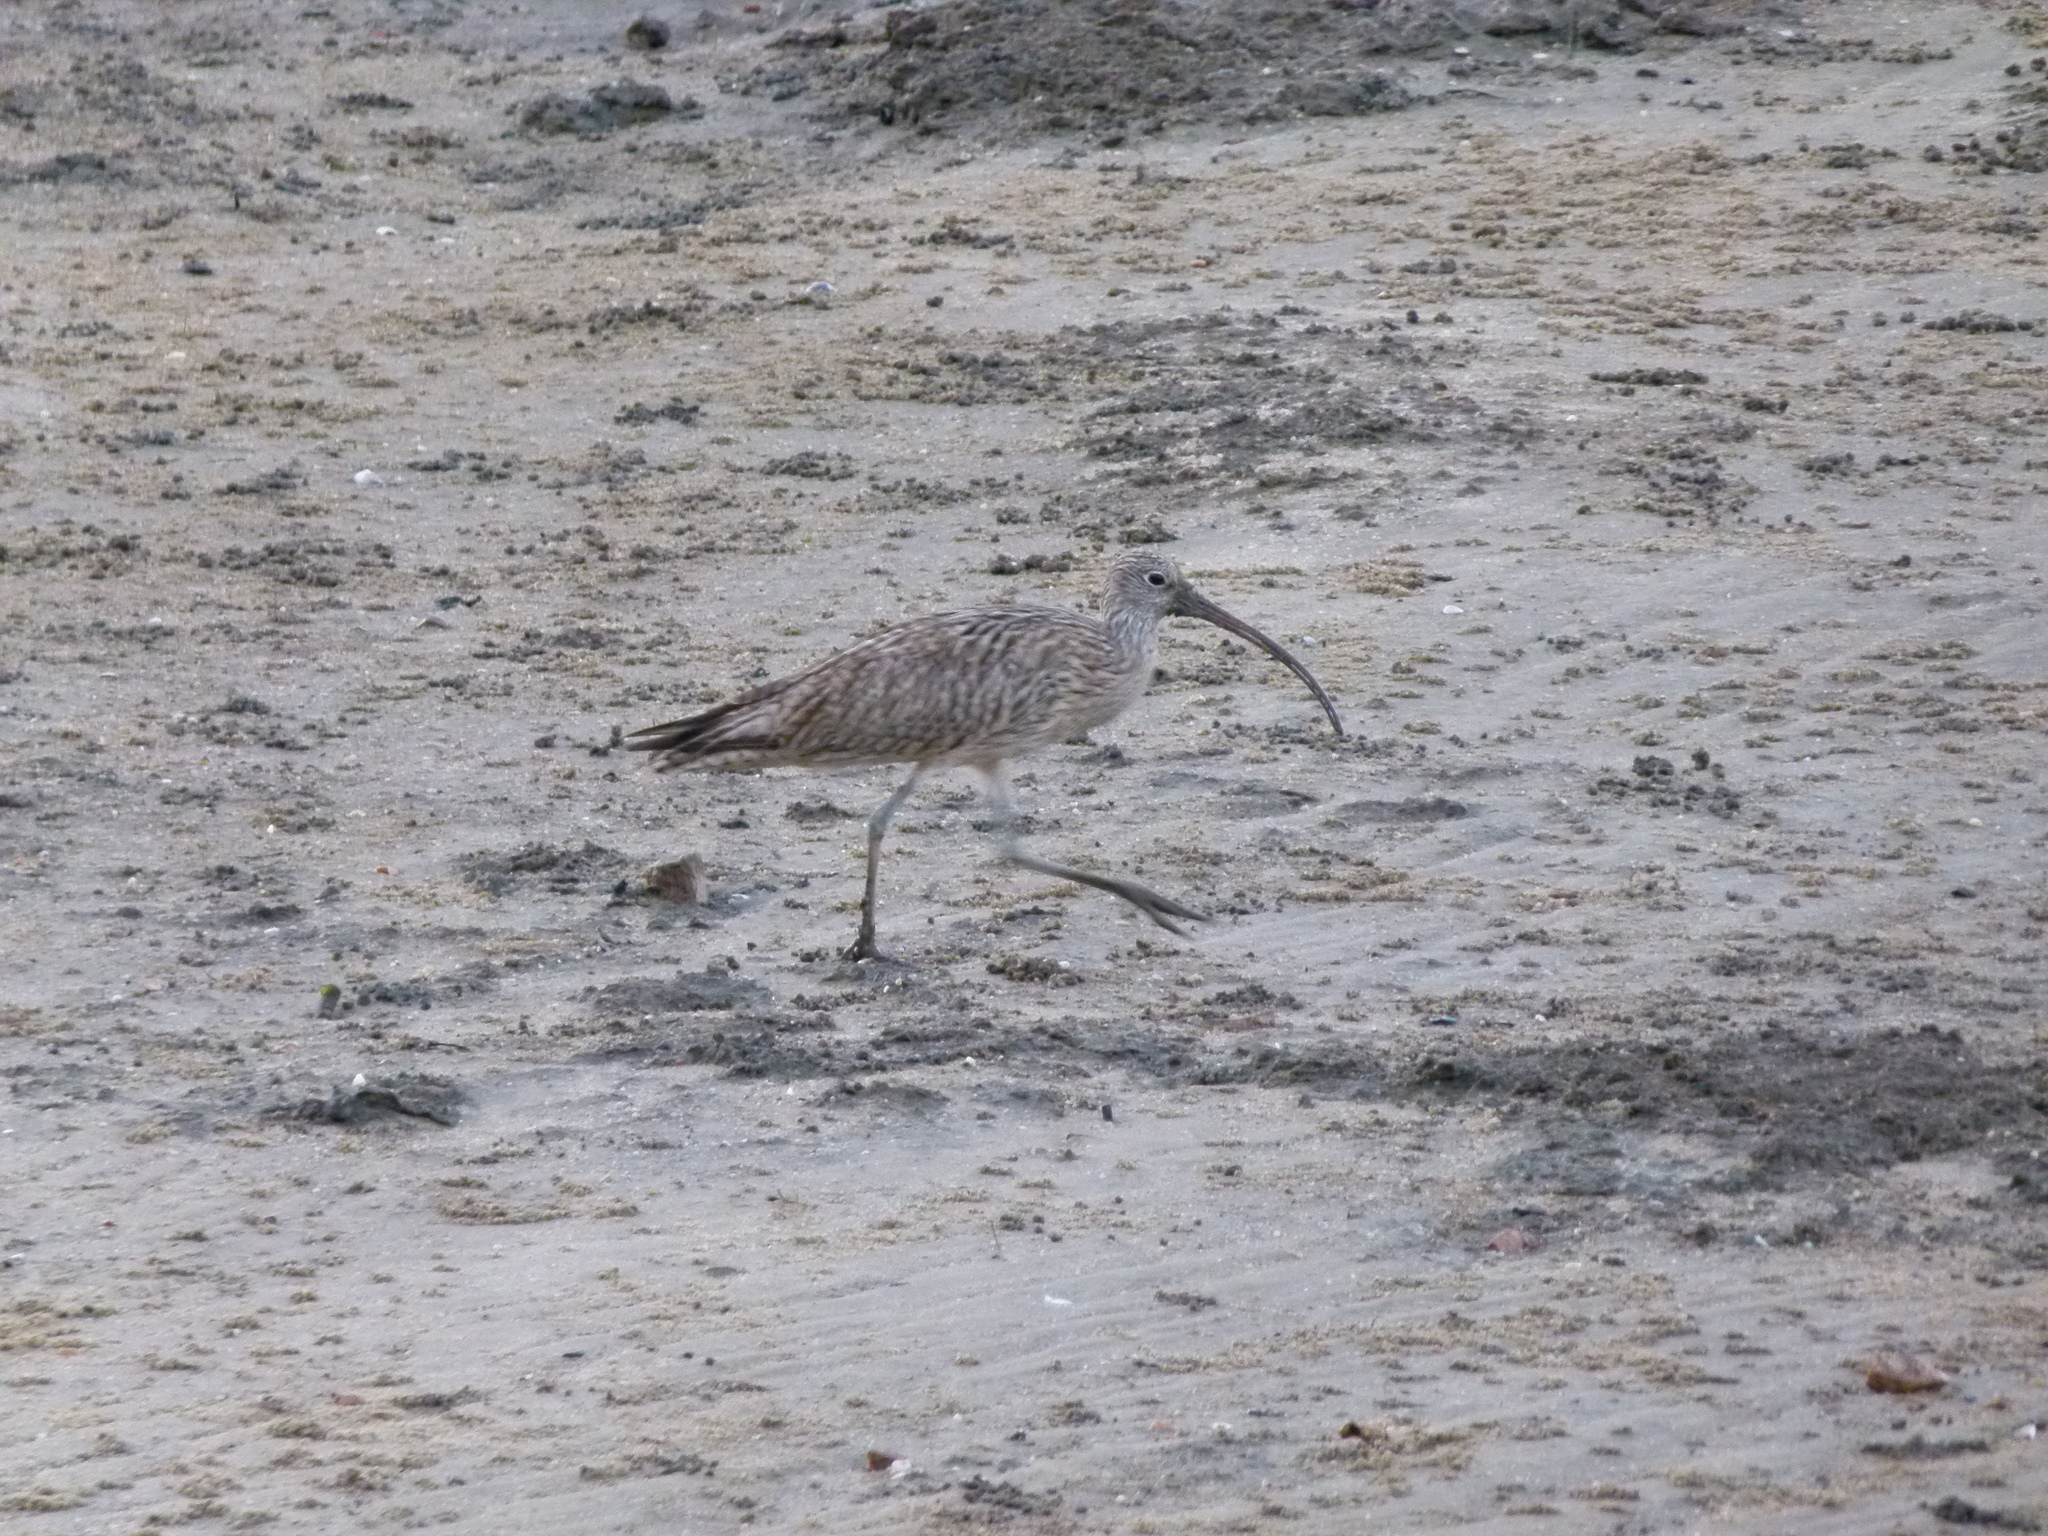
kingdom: Animalia
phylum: Chordata
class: Aves
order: Charadriiformes
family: Scolopacidae
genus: Numenius
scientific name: Numenius madagascariensis
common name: Far eastern curlew
